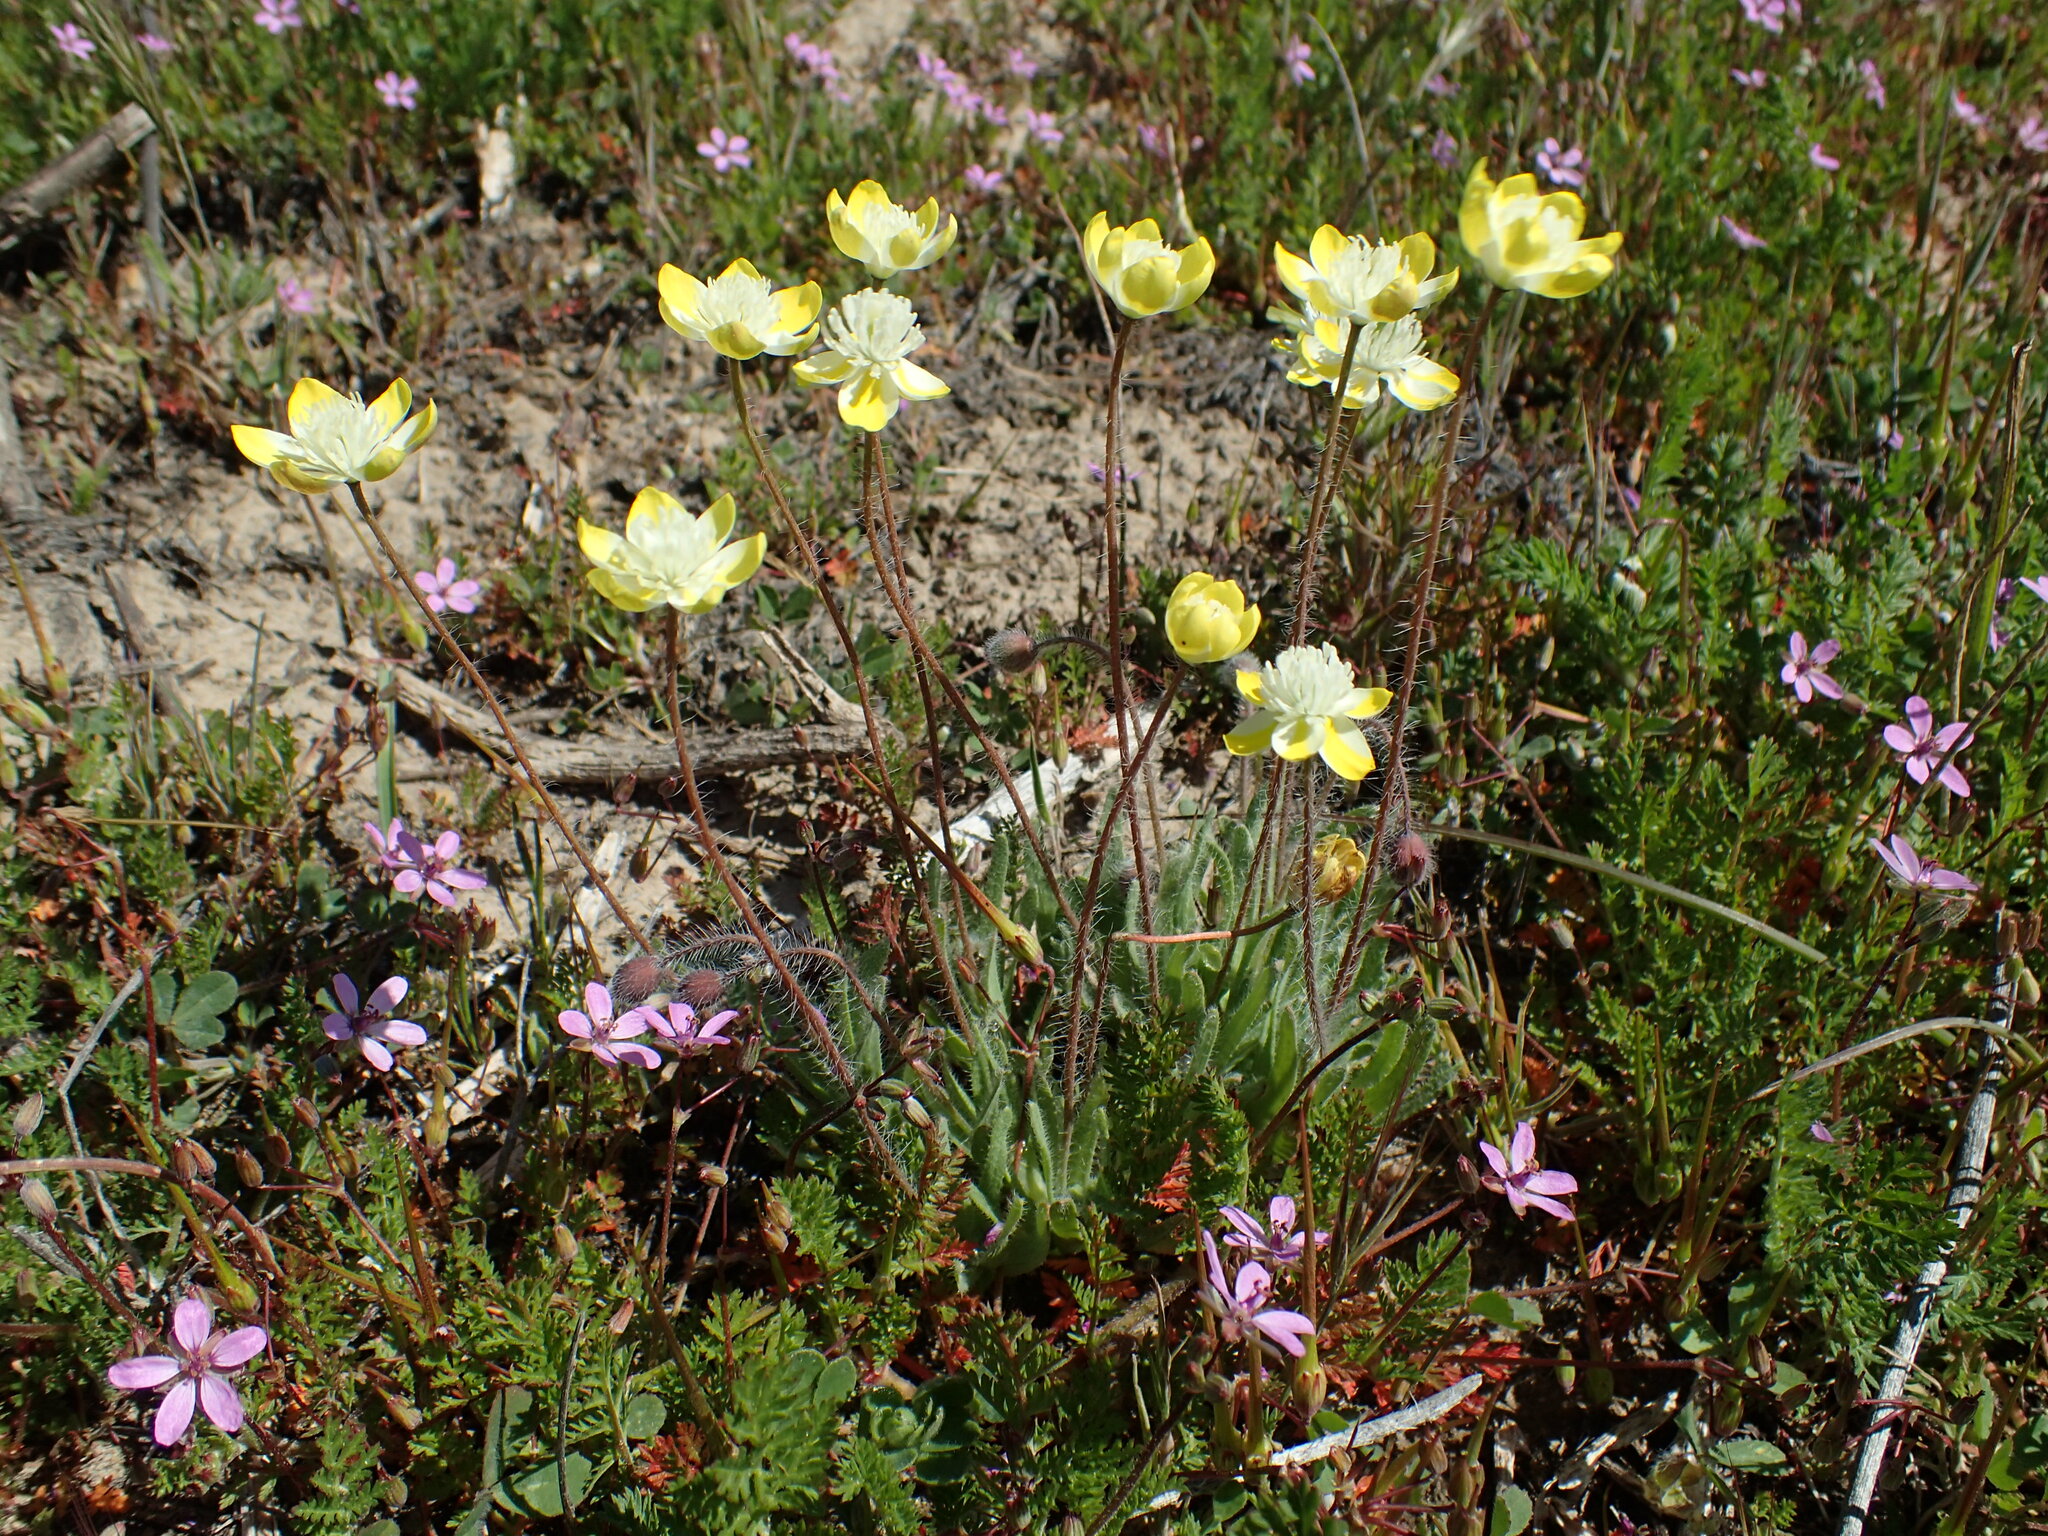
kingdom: Plantae
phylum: Tracheophyta
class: Magnoliopsida
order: Ranunculales
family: Papaveraceae
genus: Platystemon
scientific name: Platystemon californicus
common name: Cream-cups
